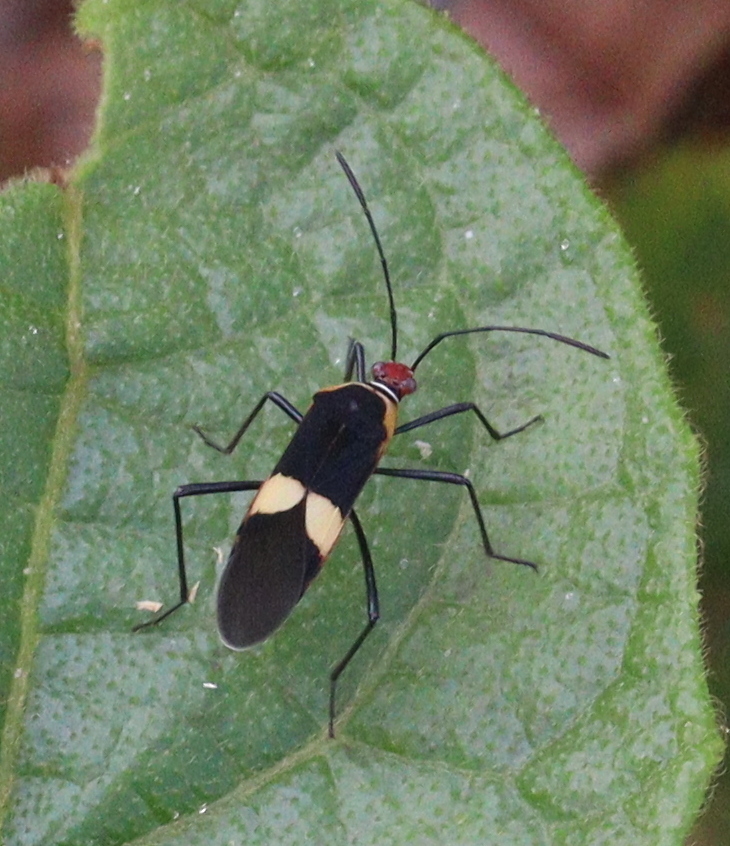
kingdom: Animalia
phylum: Arthropoda
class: Insecta
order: Hemiptera
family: Coreidae
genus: Hypselonotus
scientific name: Hypselonotus interruptus
